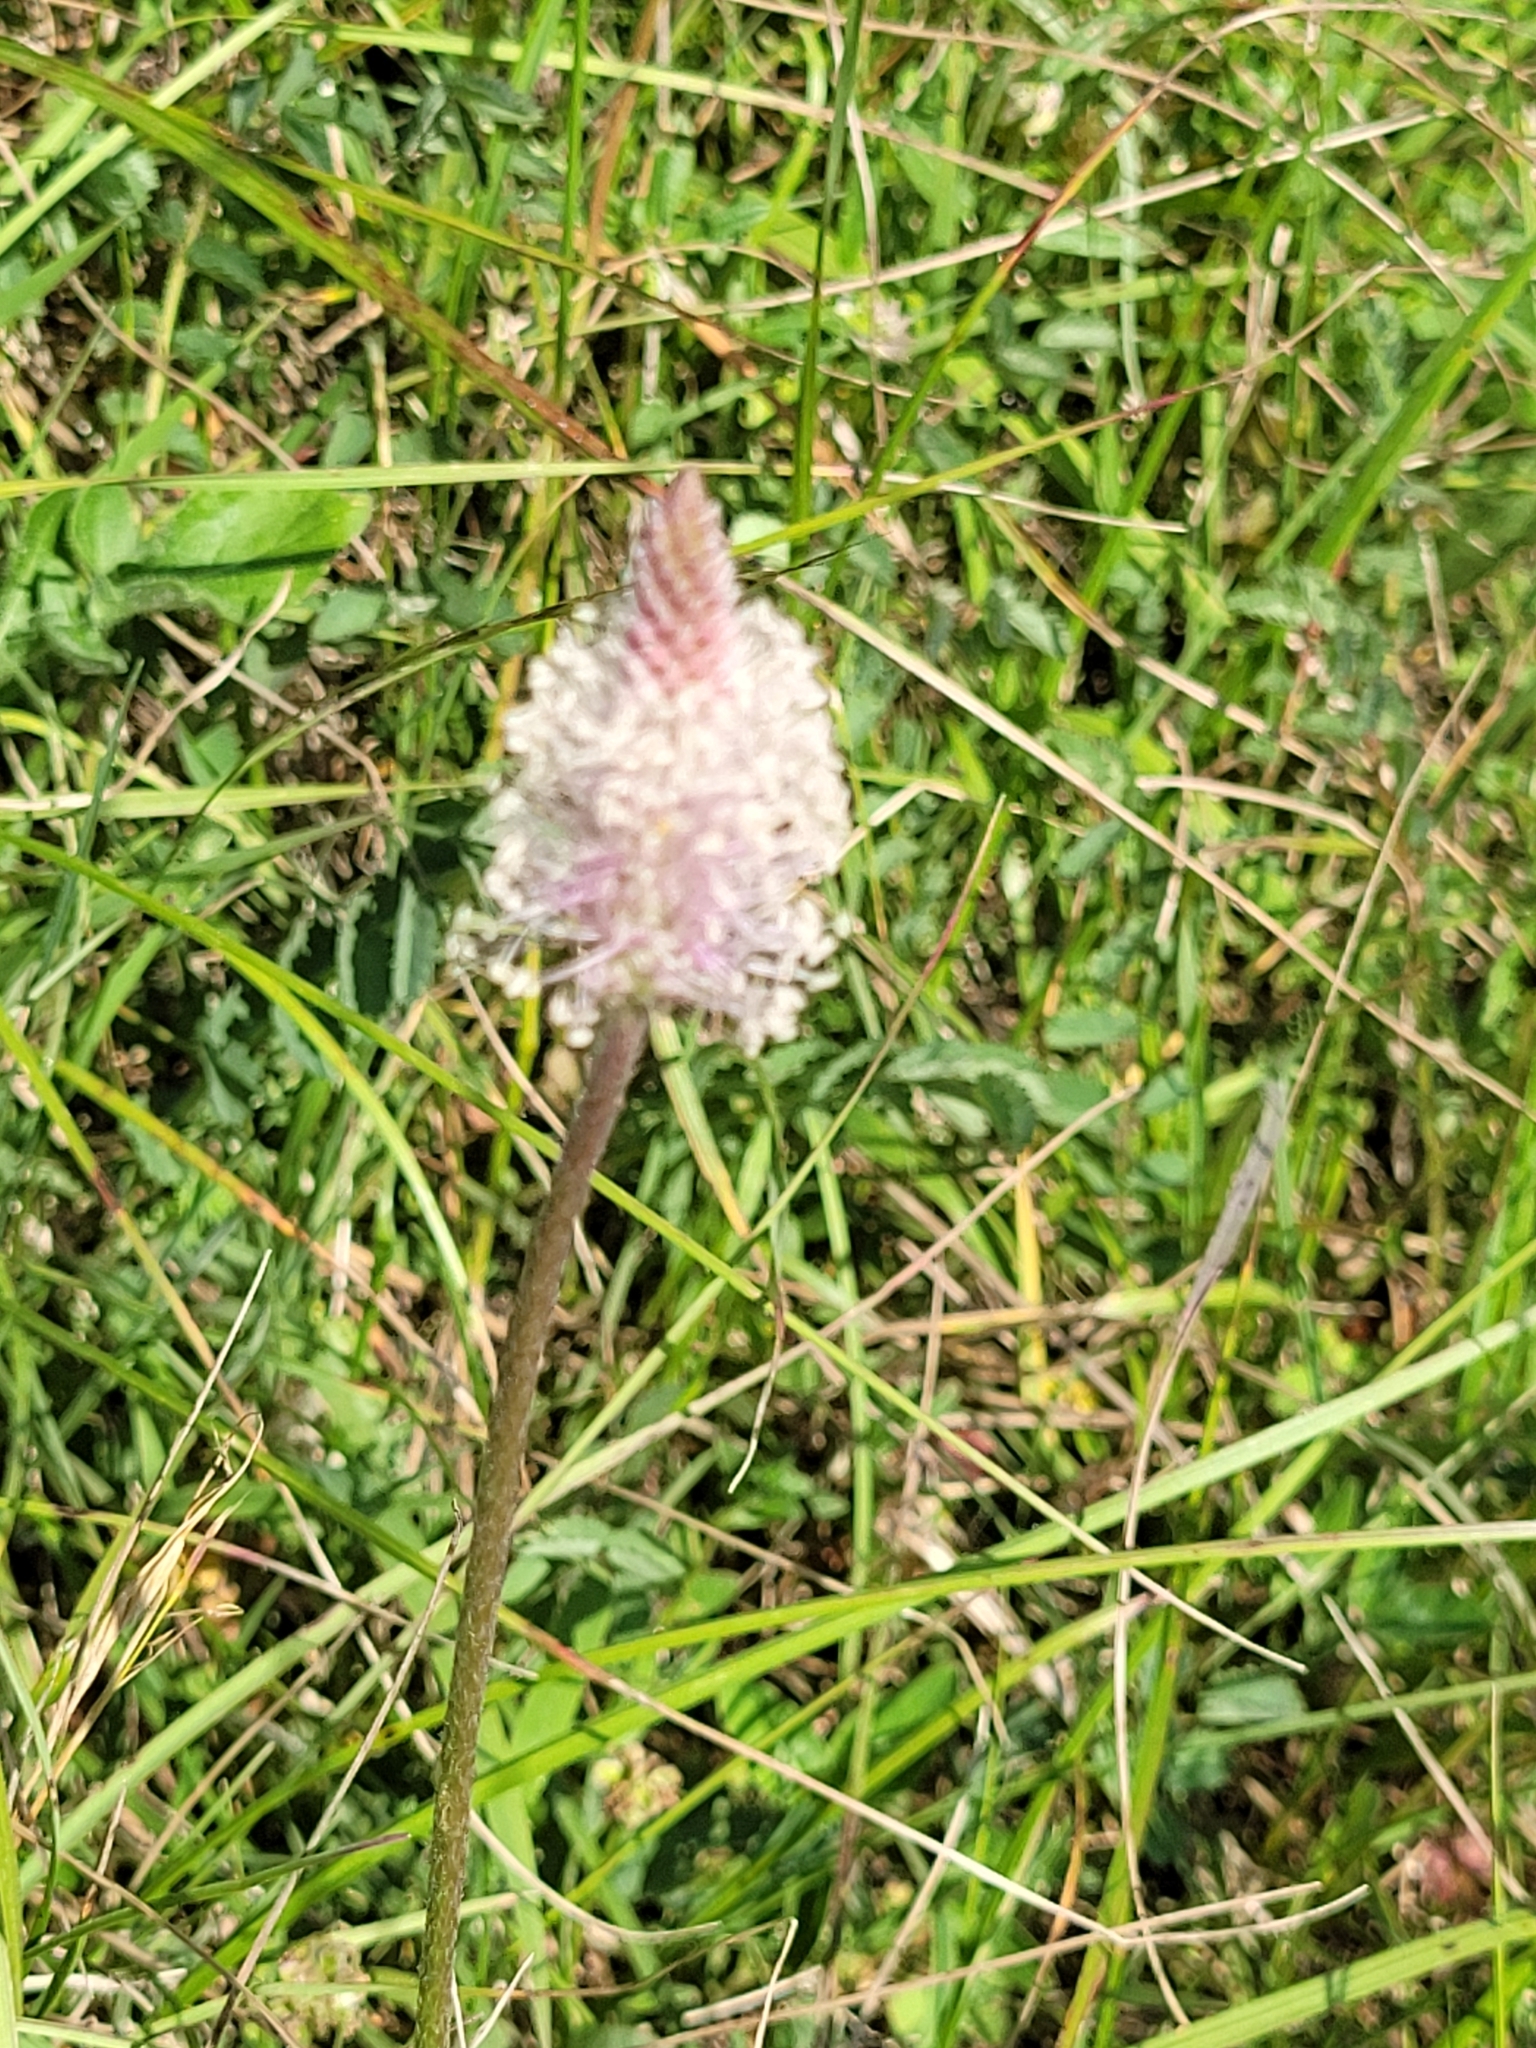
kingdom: Plantae
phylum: Tracheophyta
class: Magnoliopsida
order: Lamiales
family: Plantaginaceae
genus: Plantago
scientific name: Plantago media
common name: Hoary plantain
